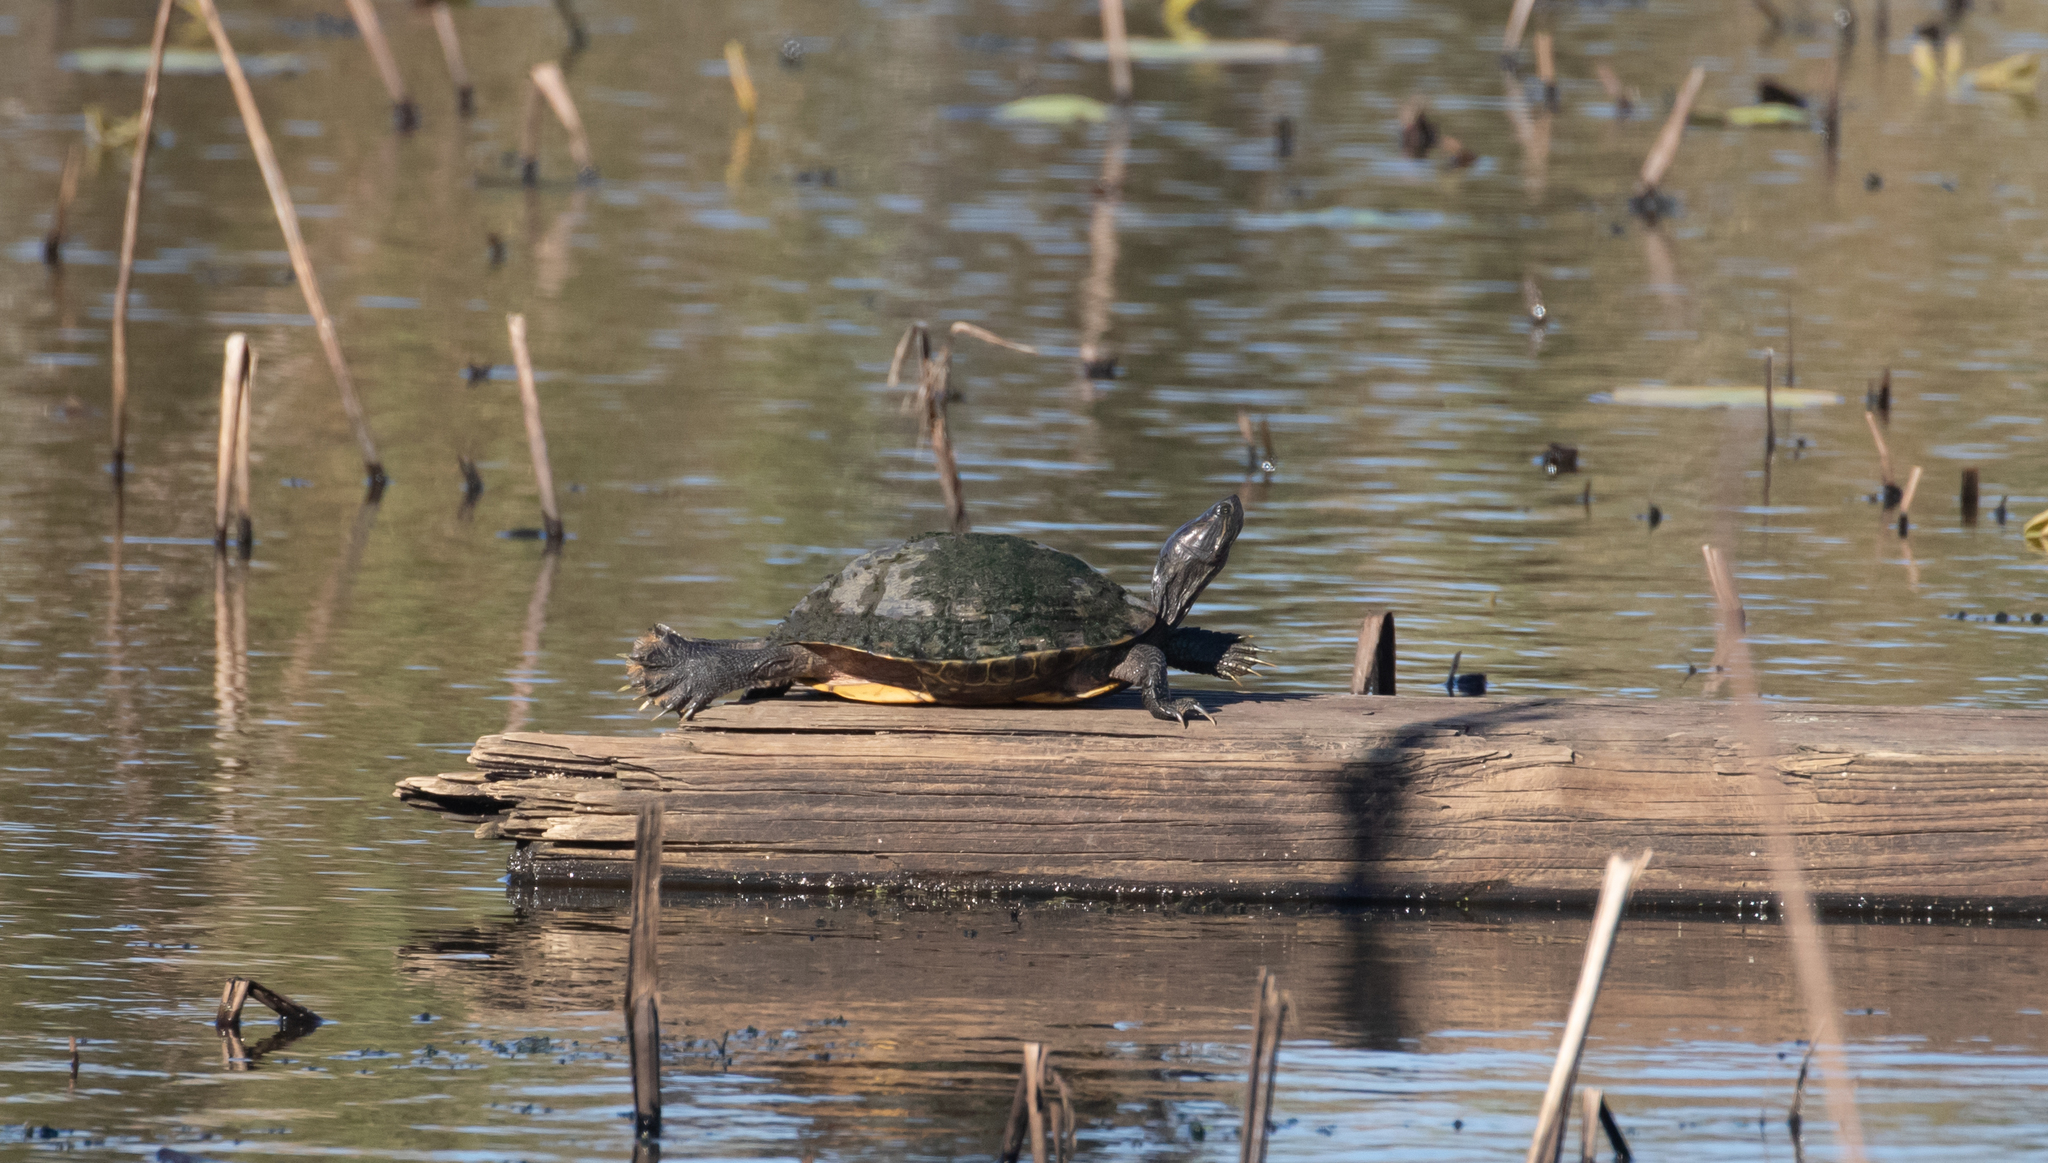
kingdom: Animalia
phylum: Chordata
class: Testudines
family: Emydidae
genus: Trachemys
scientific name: Trachemys scripta
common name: Slider
